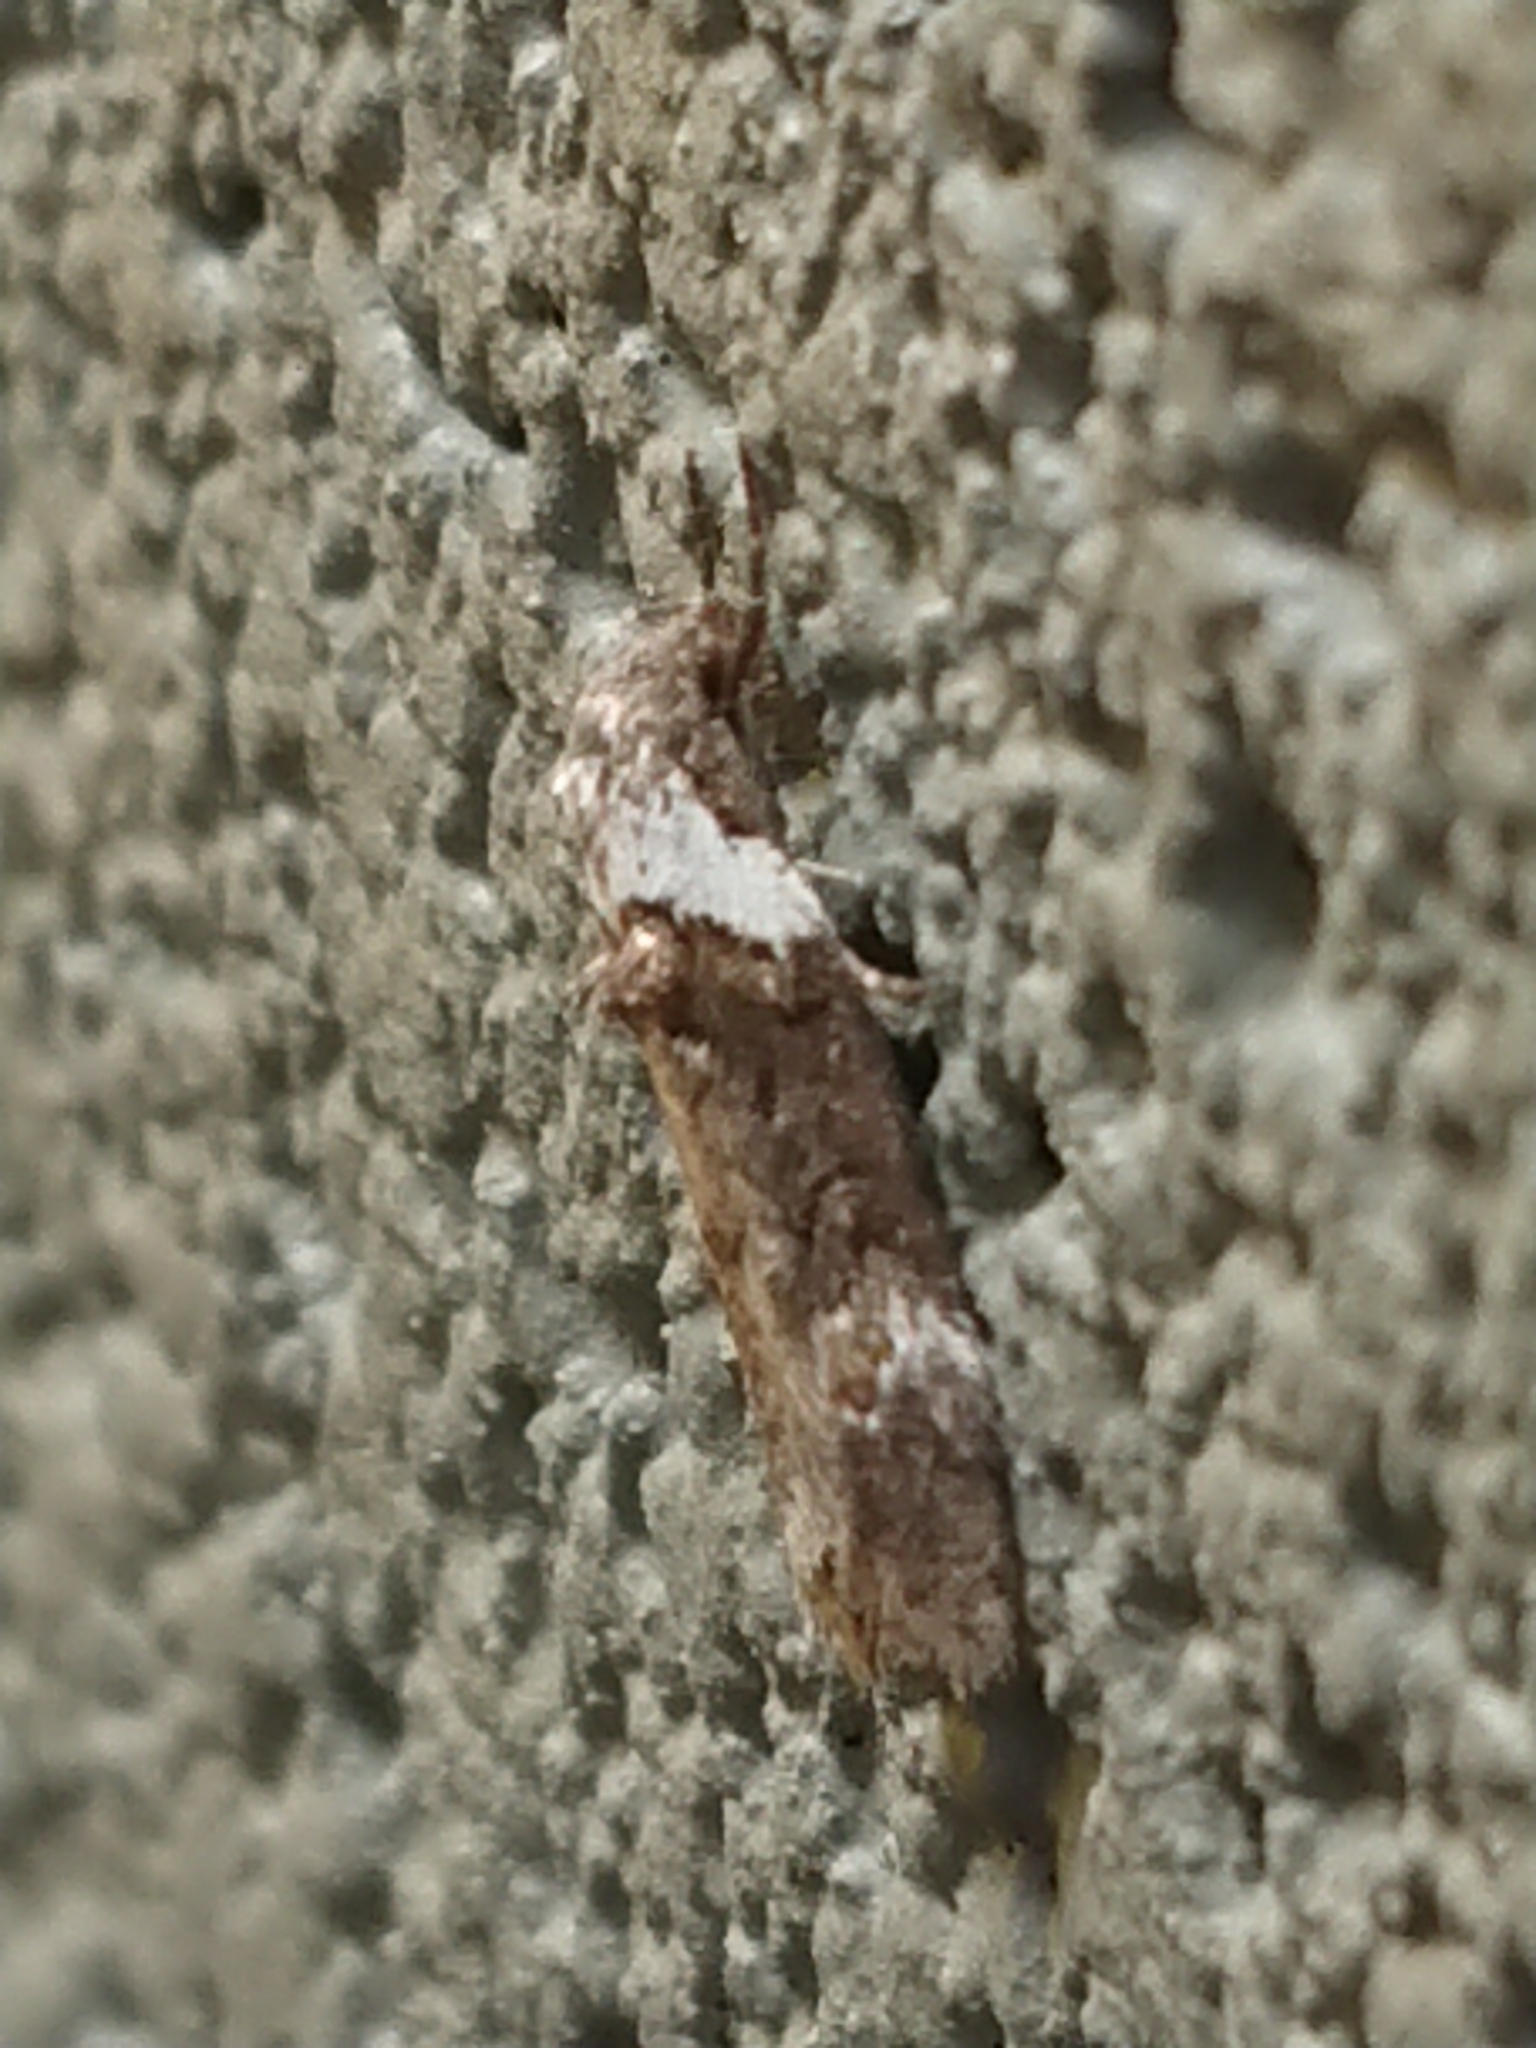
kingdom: Animalia
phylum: Arthropoda
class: Insecta
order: Lepidoptera
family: Oecophoridae
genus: Trachypepla
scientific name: Trachypepla conspicuella
